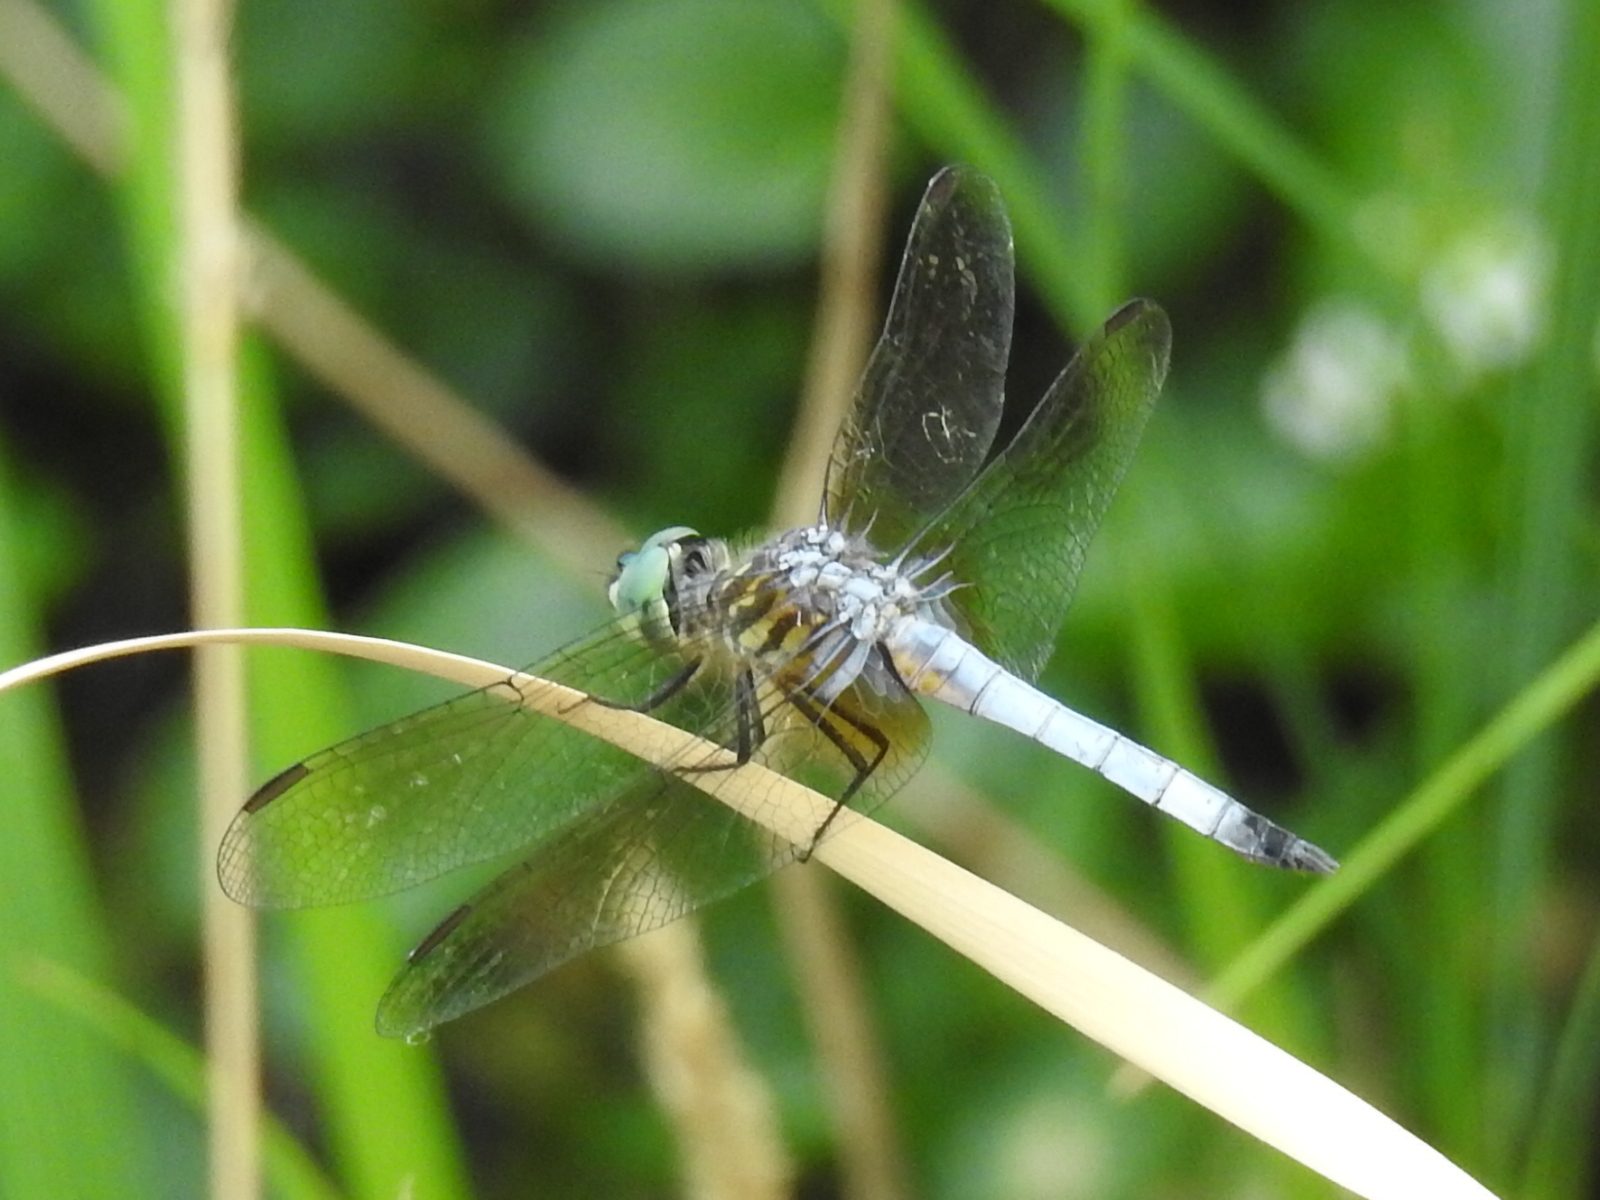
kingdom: Animalia
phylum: Arthropoda
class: Insecta
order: Odonata
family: Libellulidae
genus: Pachydiplax
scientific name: Pachydiplax longipennis
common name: Blue dasher
